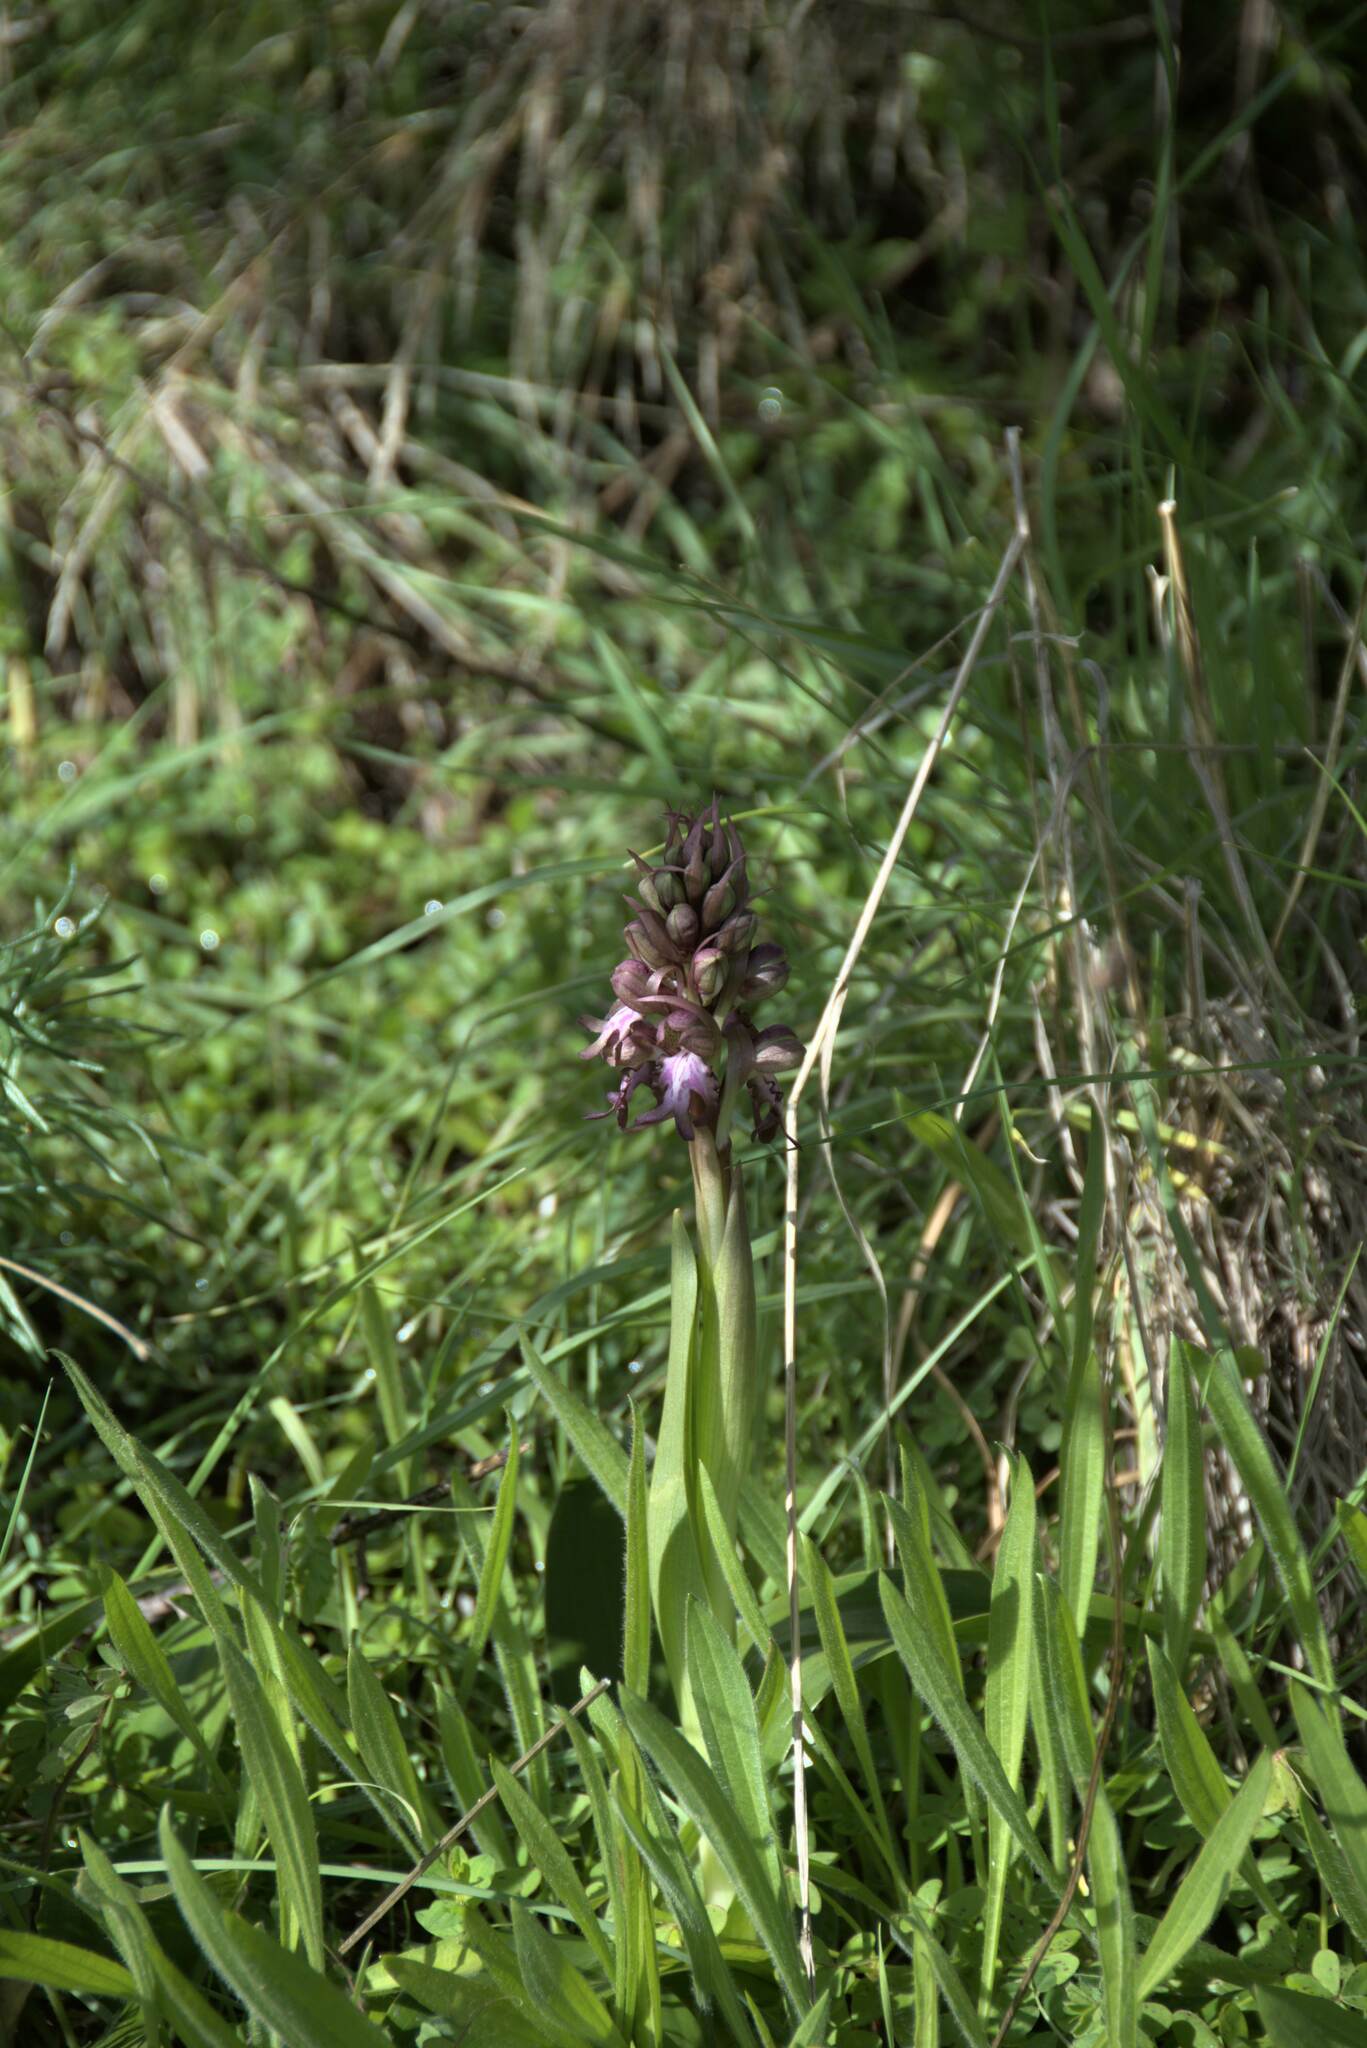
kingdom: Plantae
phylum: Tracheophyta
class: Liliopsida
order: Asparagales
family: Orchidaceae
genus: Himantoglossum
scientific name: Himantoglossum robertianum
